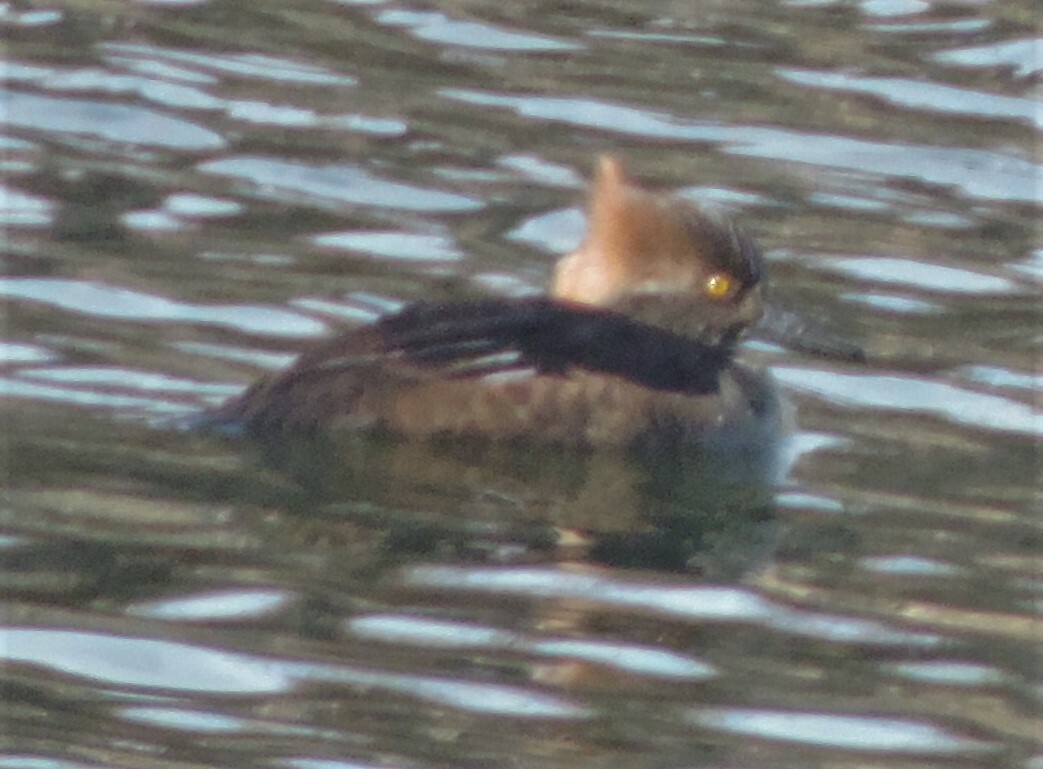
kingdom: Animalia
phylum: Chordata
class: Aves
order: Anseriformes
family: Anatidae
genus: Lophodytes
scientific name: Lophodytes cucullatus
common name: Hooded merganser
